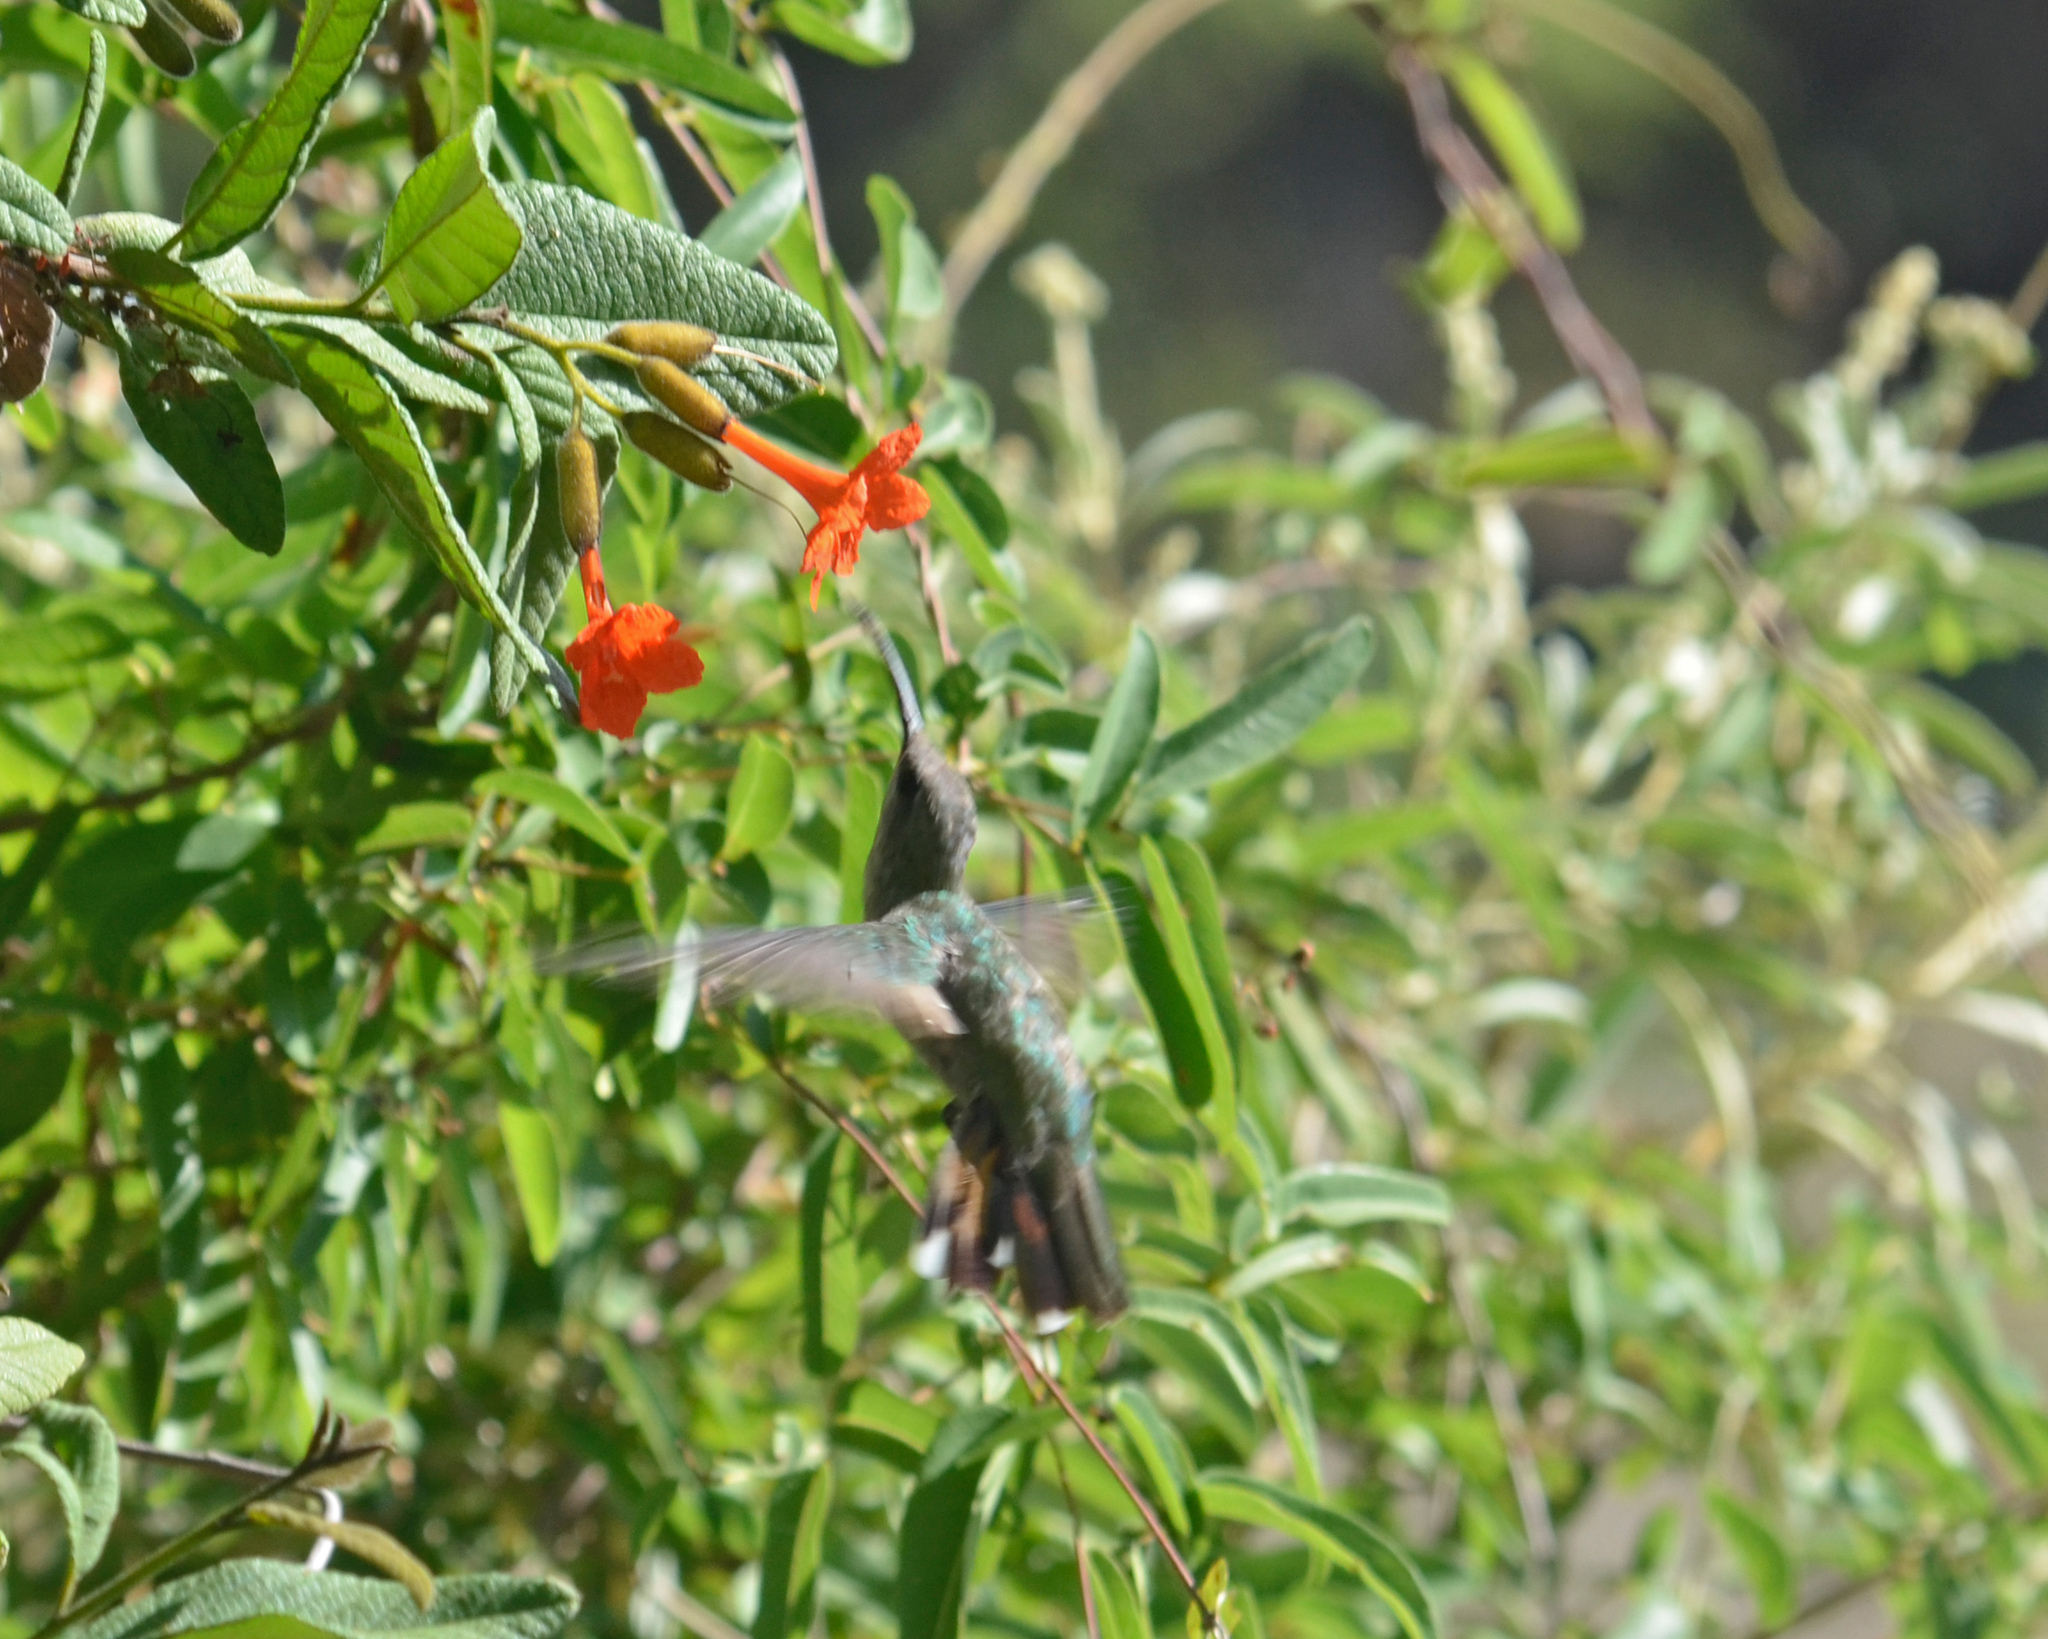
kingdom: Animalia
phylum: Chordata
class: Aves
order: Apodiformes
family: Trochilidae
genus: Anthracothorax
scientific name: Anthracothorax dominicus
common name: Antillean mango
